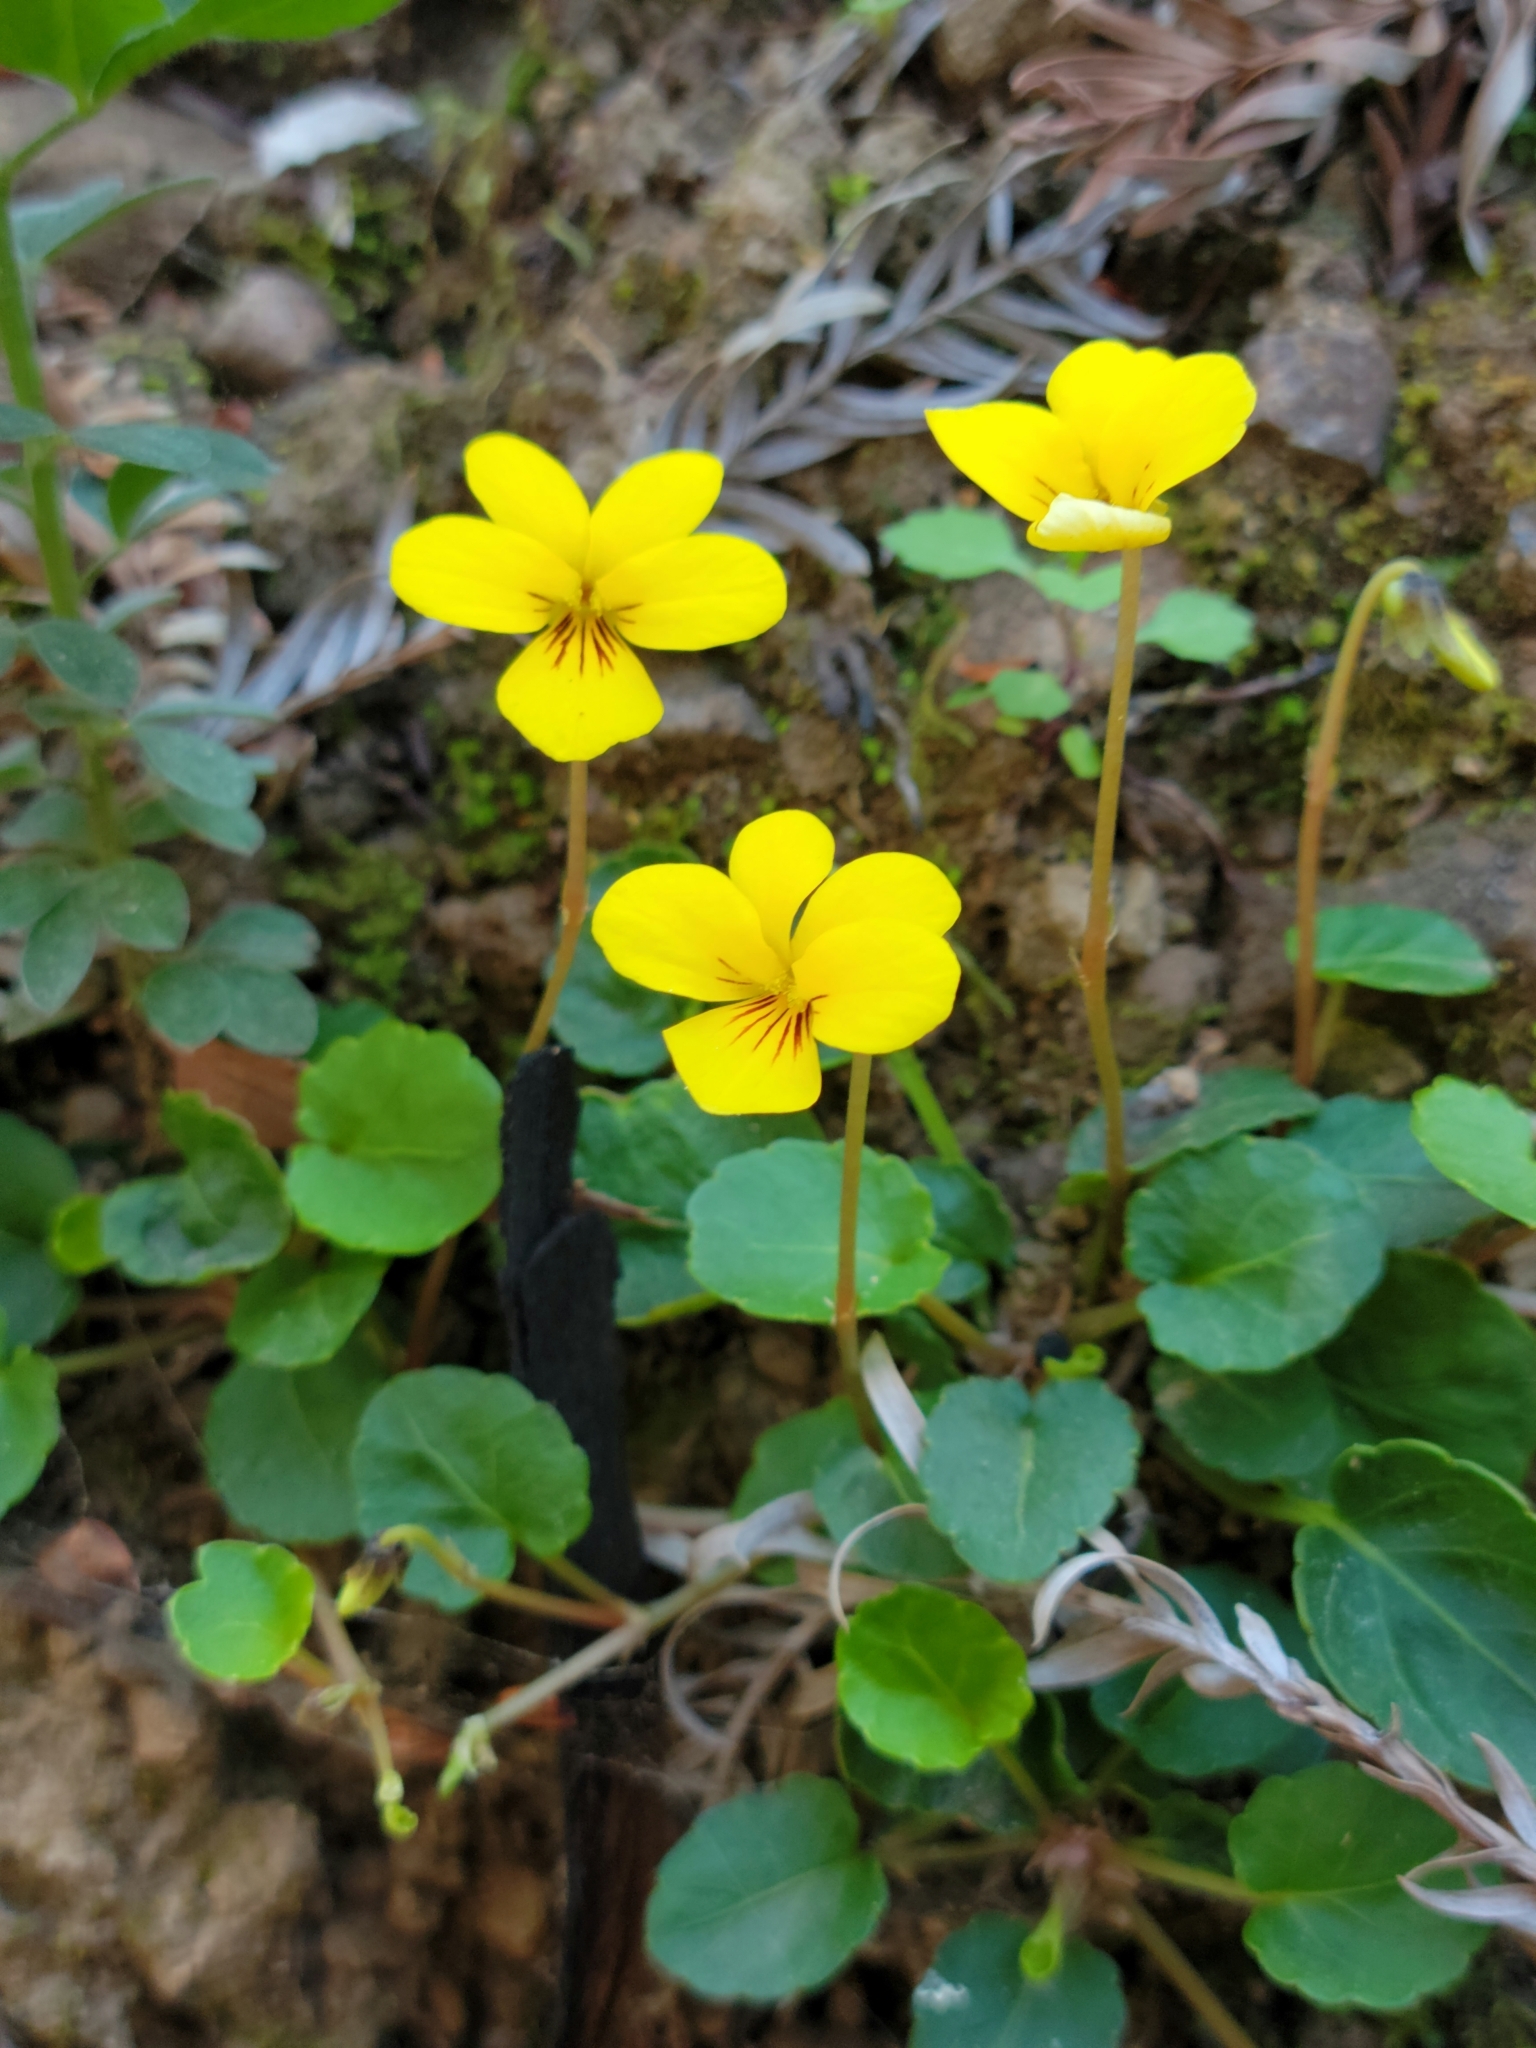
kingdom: Plantae
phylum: Tracheophyta
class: Magnoliopsida
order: Malpighiales
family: Violaceae
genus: Viola
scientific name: Viola sempervirens
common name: Evergreen violet
